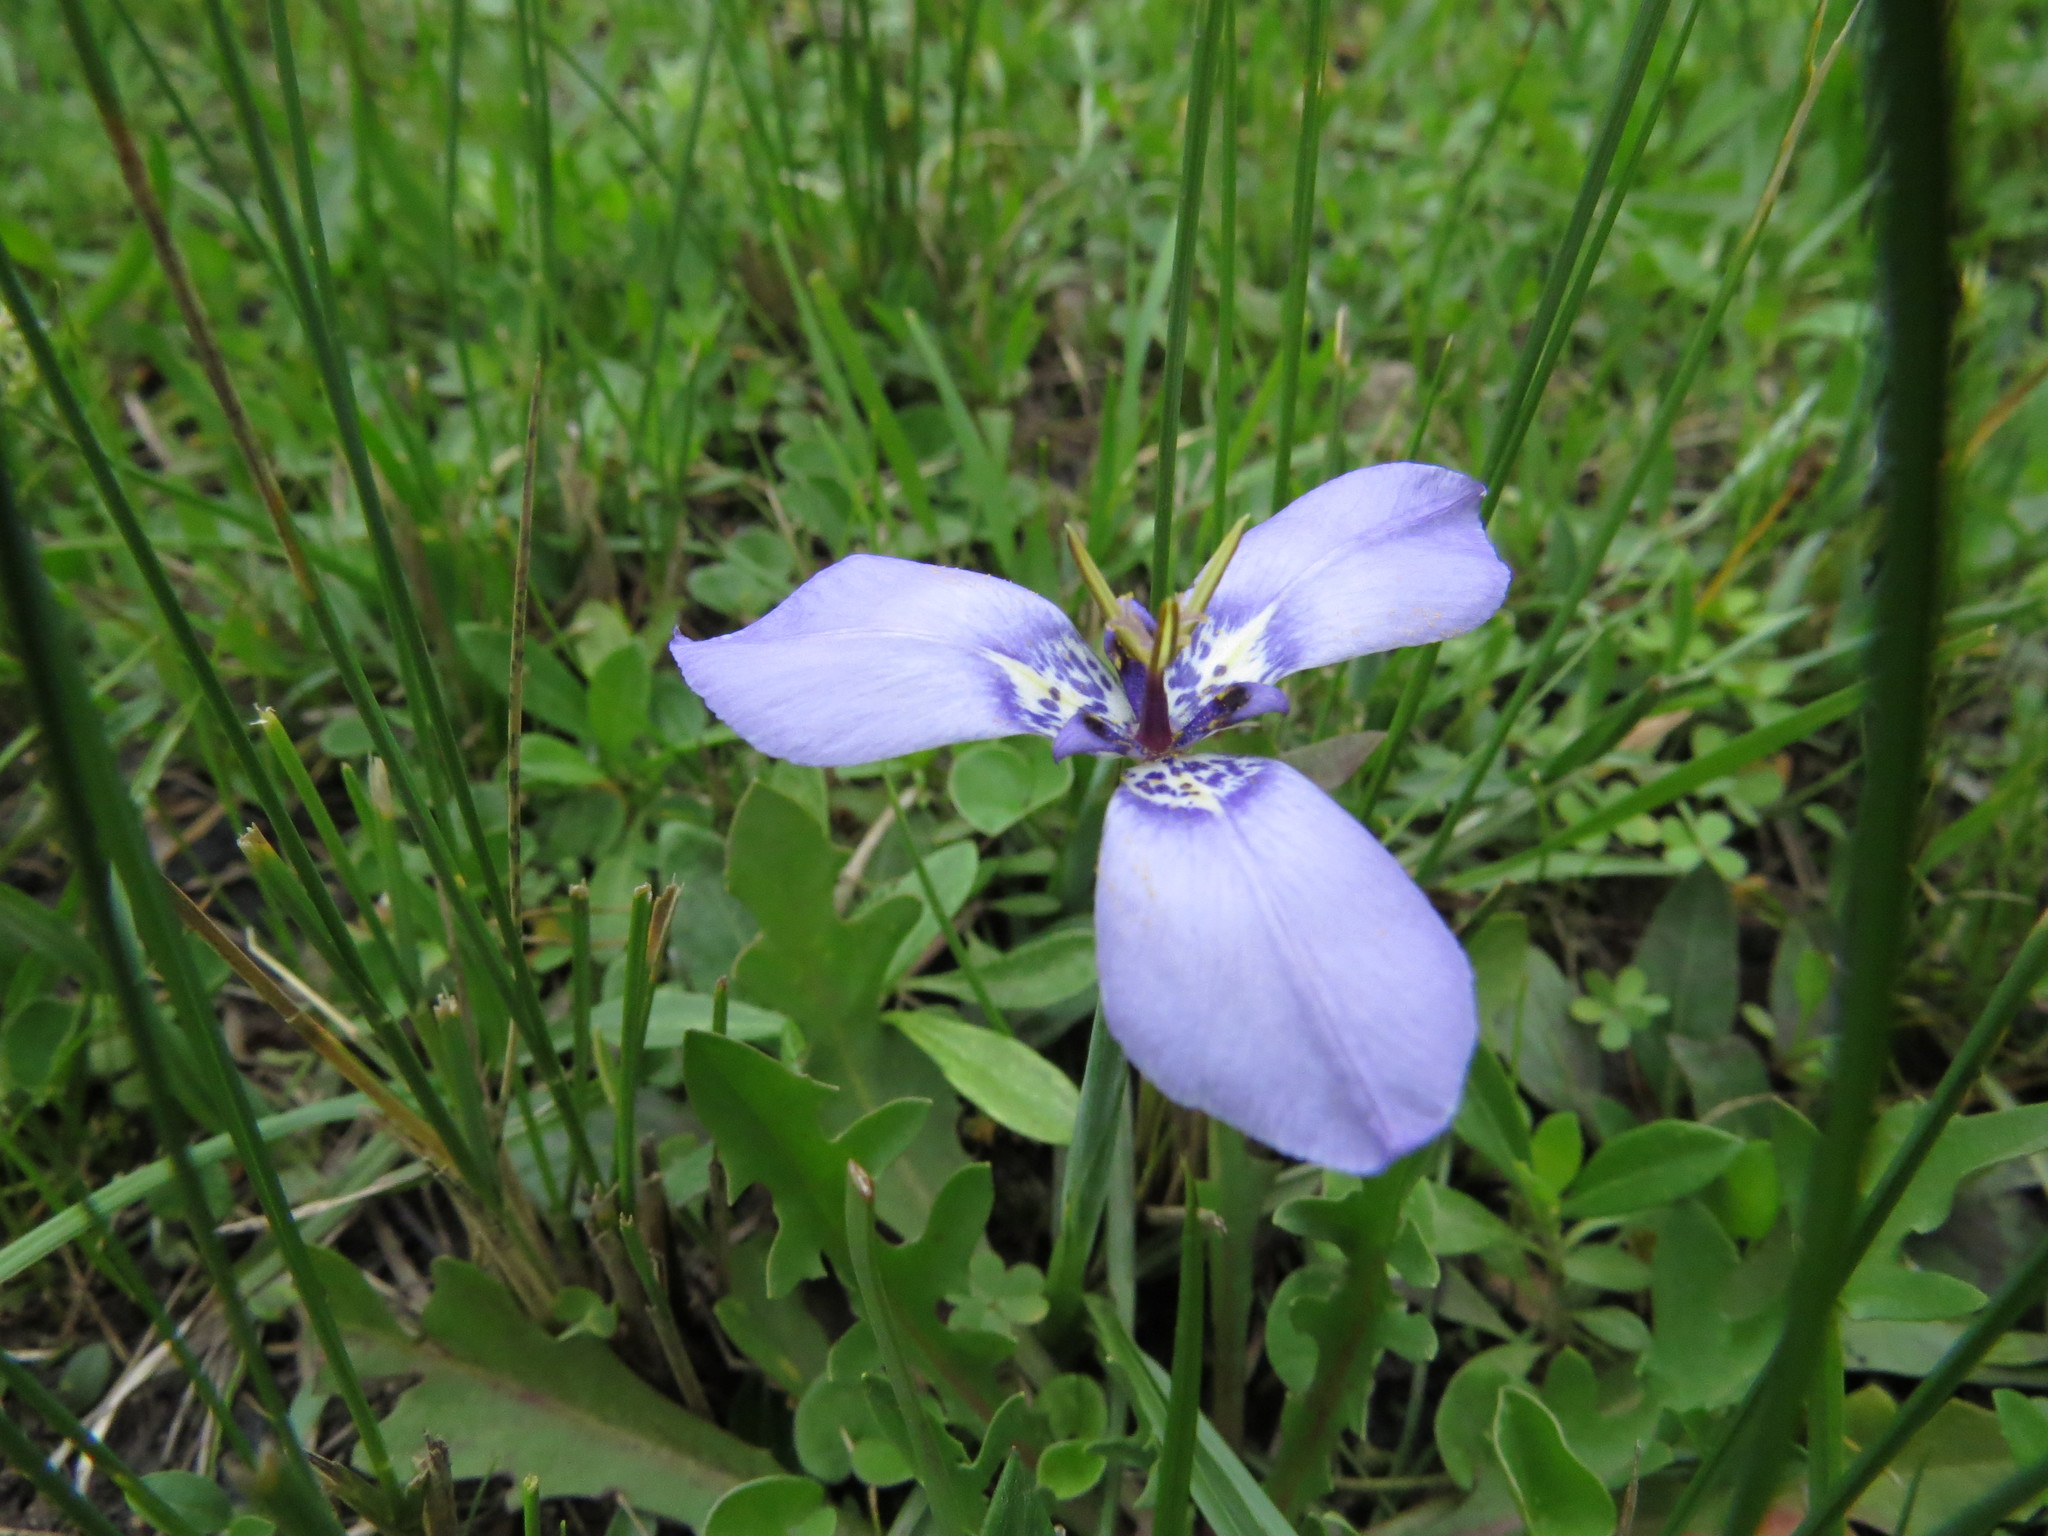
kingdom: Plantae
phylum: Tracheophyta
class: Liliopsida
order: Asparagales
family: Iridaceae
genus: Herbertia
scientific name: Herbertia lahue
